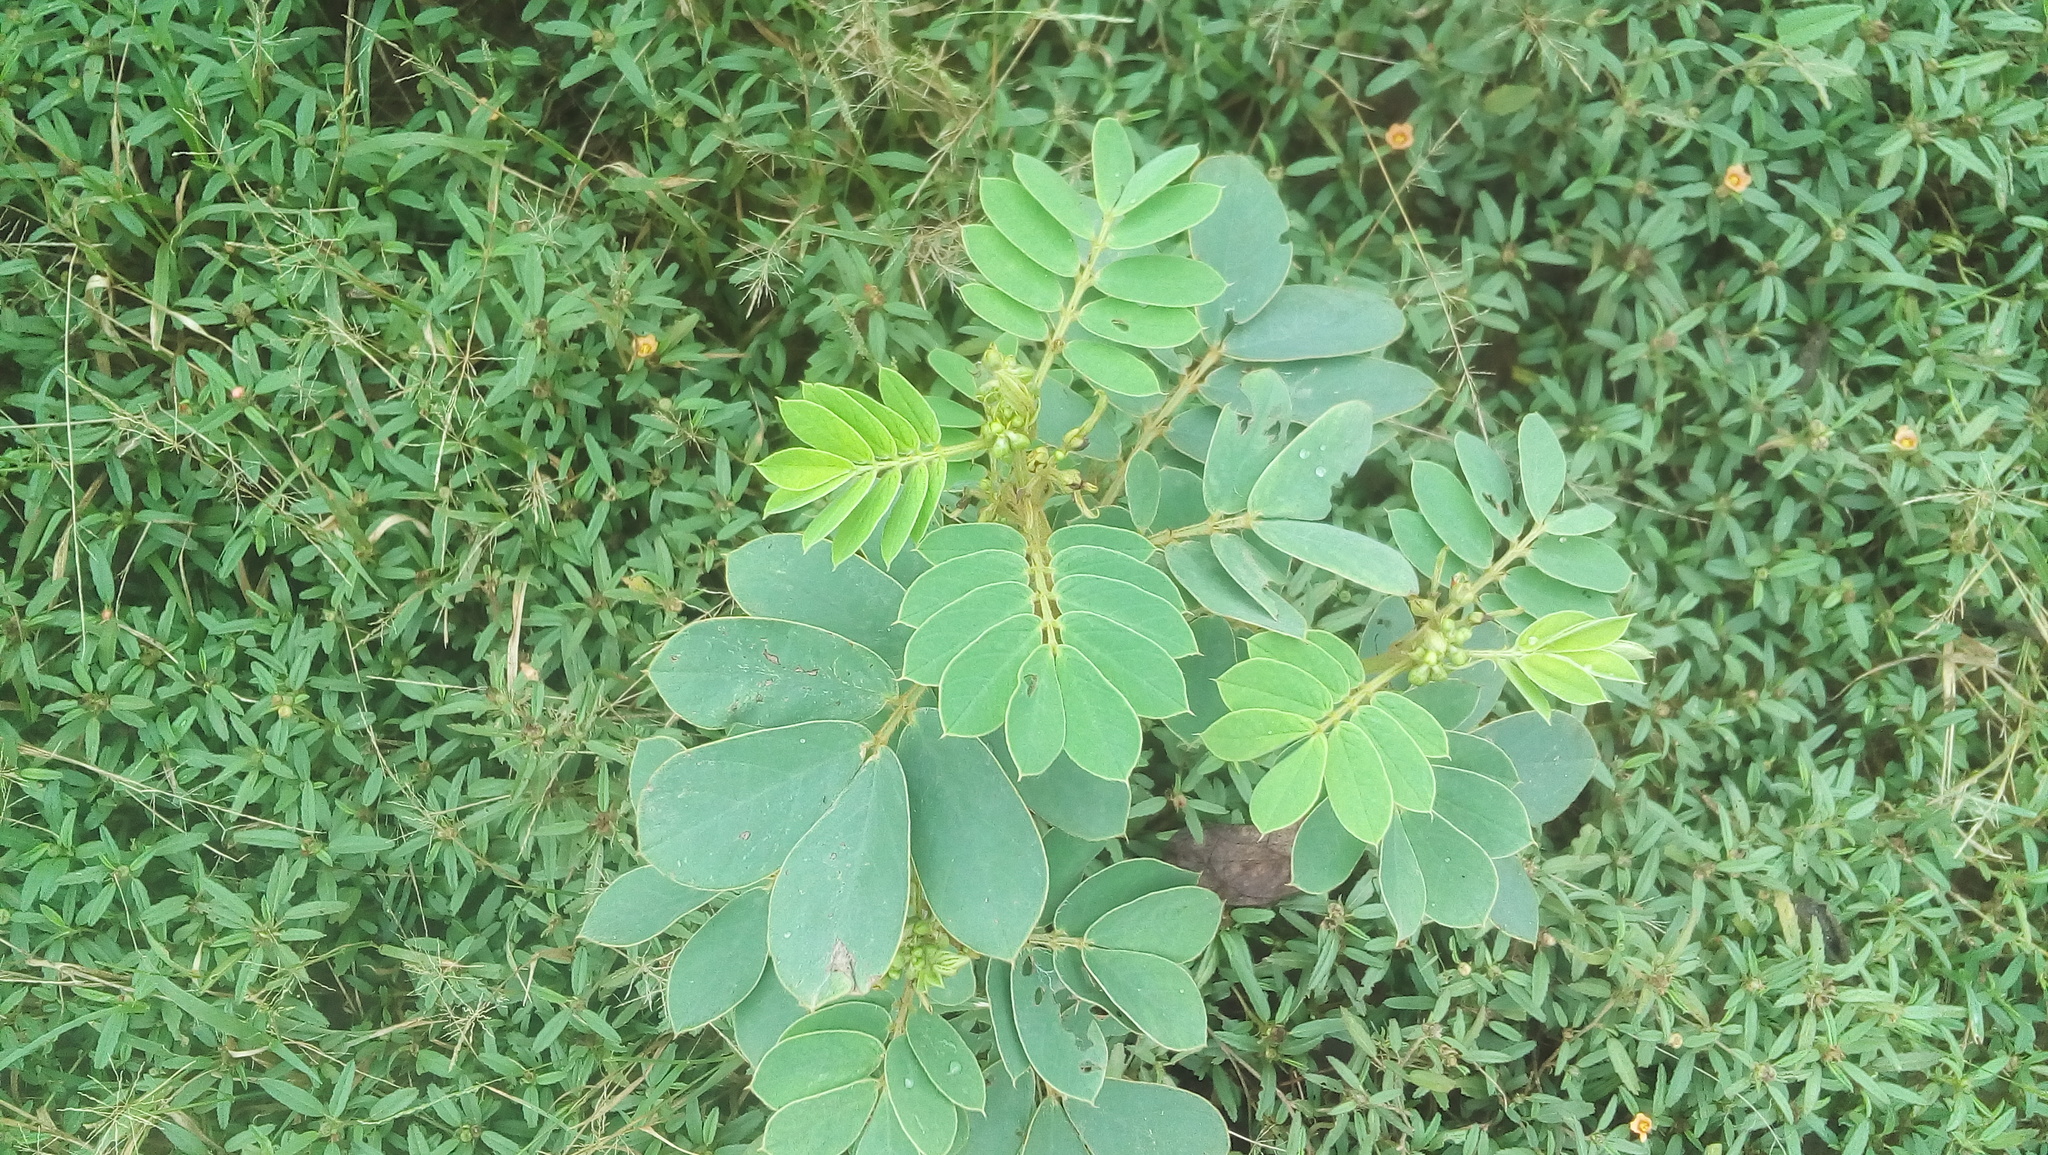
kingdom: Plantae
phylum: Tracheophyta
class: Magnoliopsida
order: Fabales
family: Fabaceae
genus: Senna
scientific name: Senna uniflora
